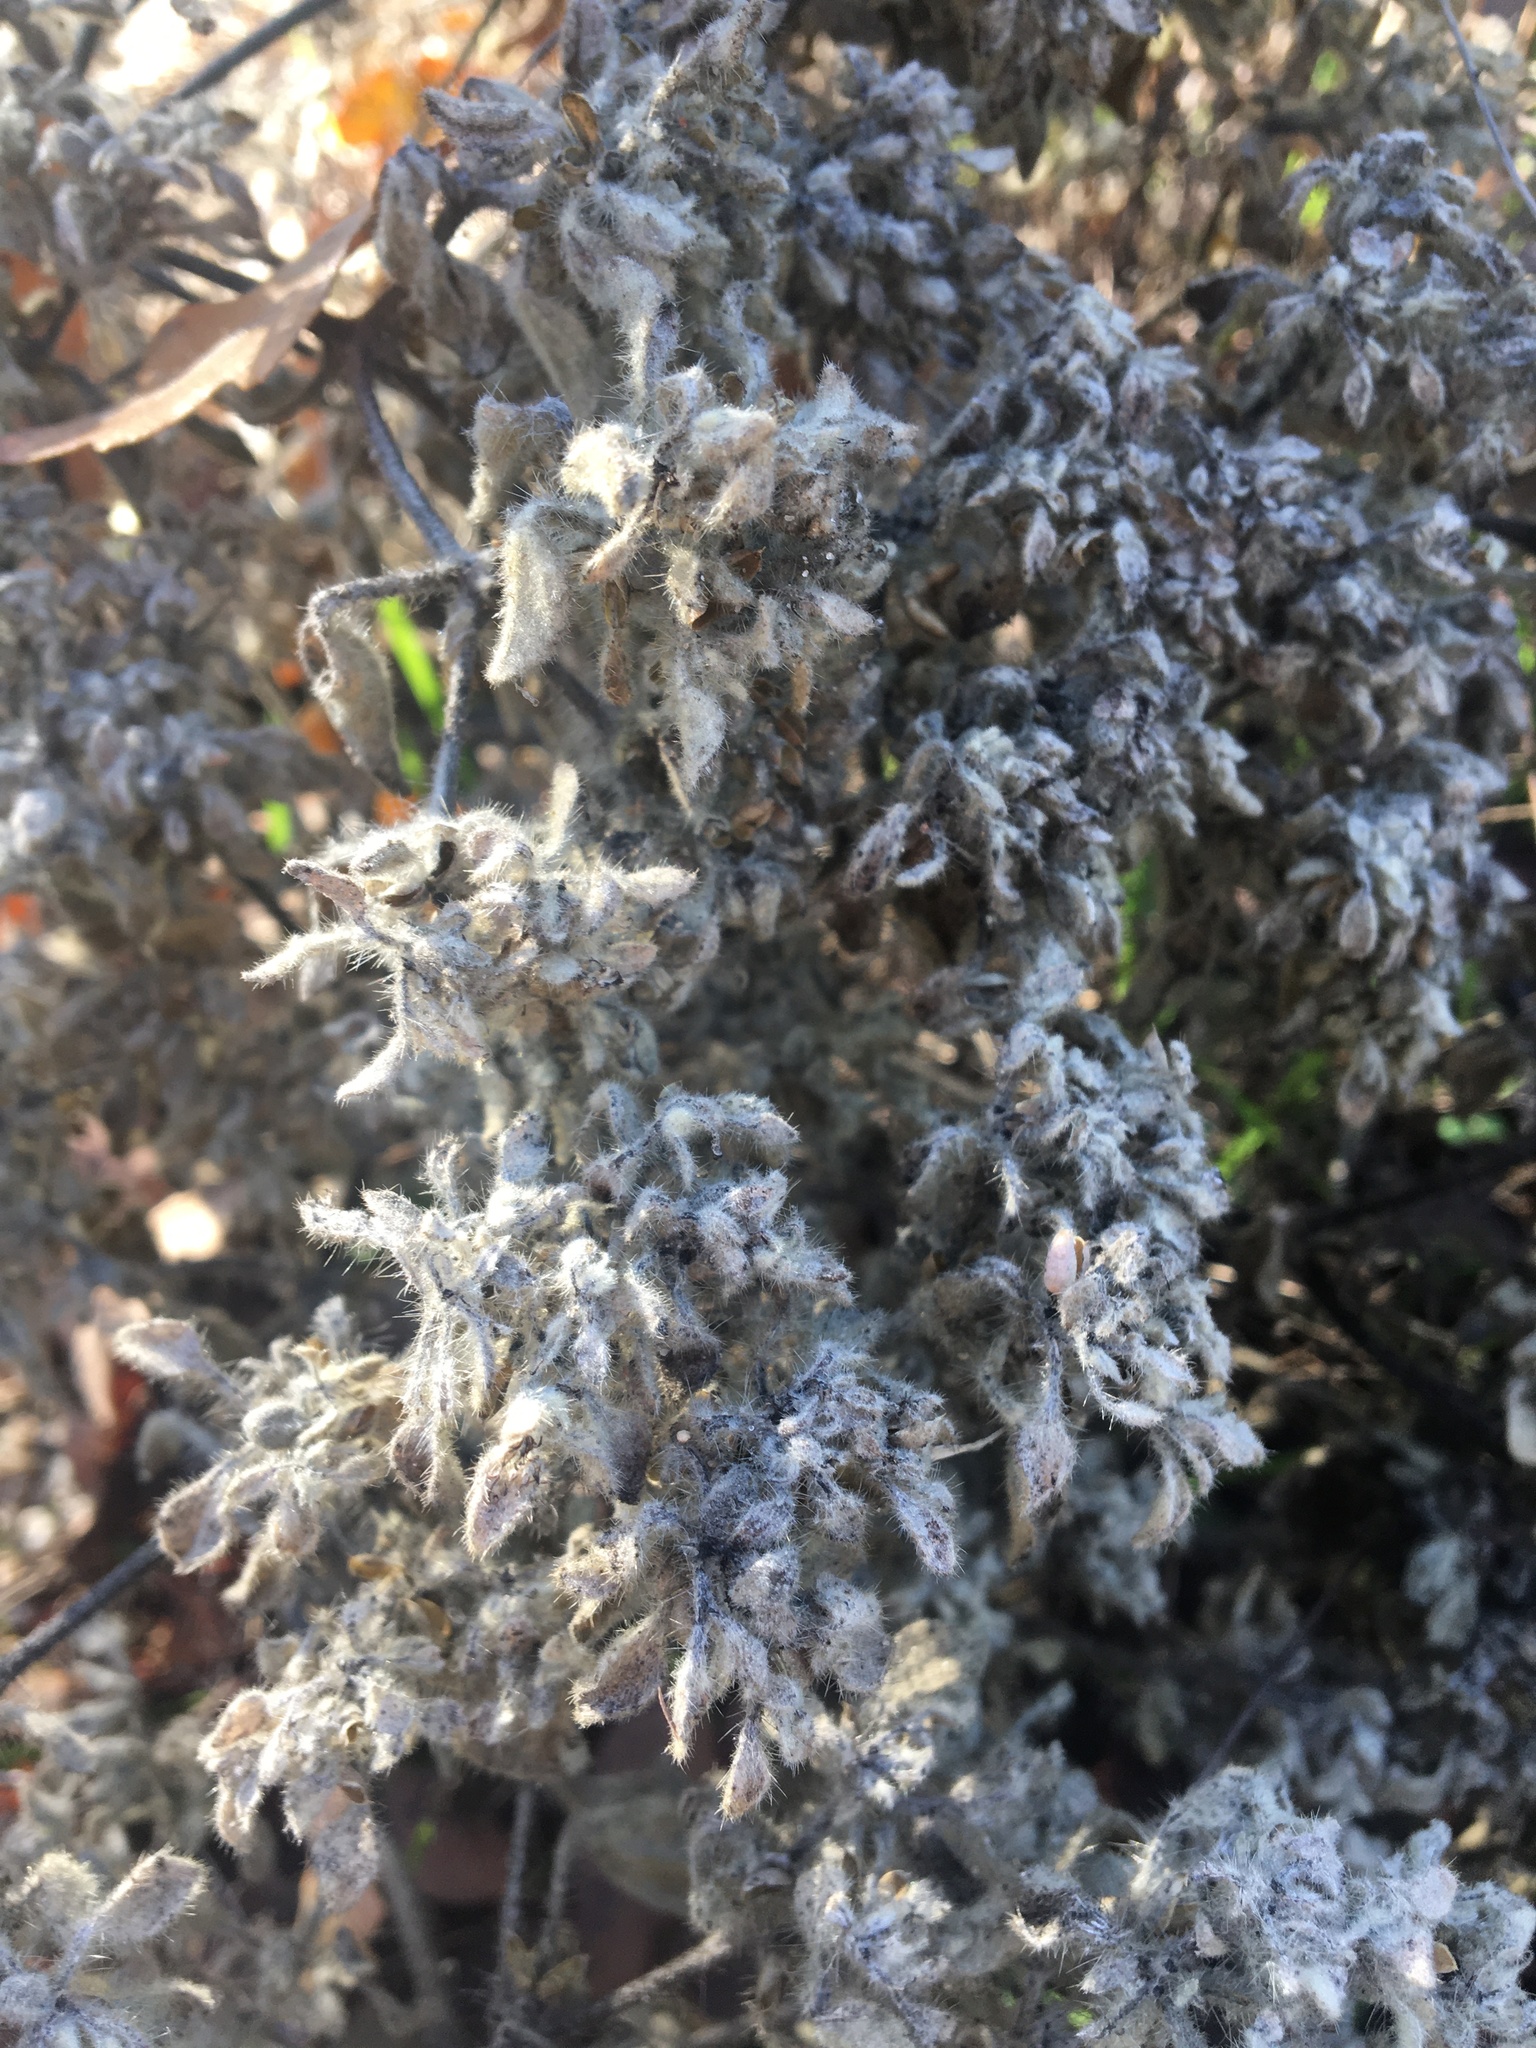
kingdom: Plantae
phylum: Tracheophyta
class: Magnoliopsida
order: Malpighiales
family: Euphorbiaceae
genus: Croton
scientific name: Croton setiger
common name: Dove weed
